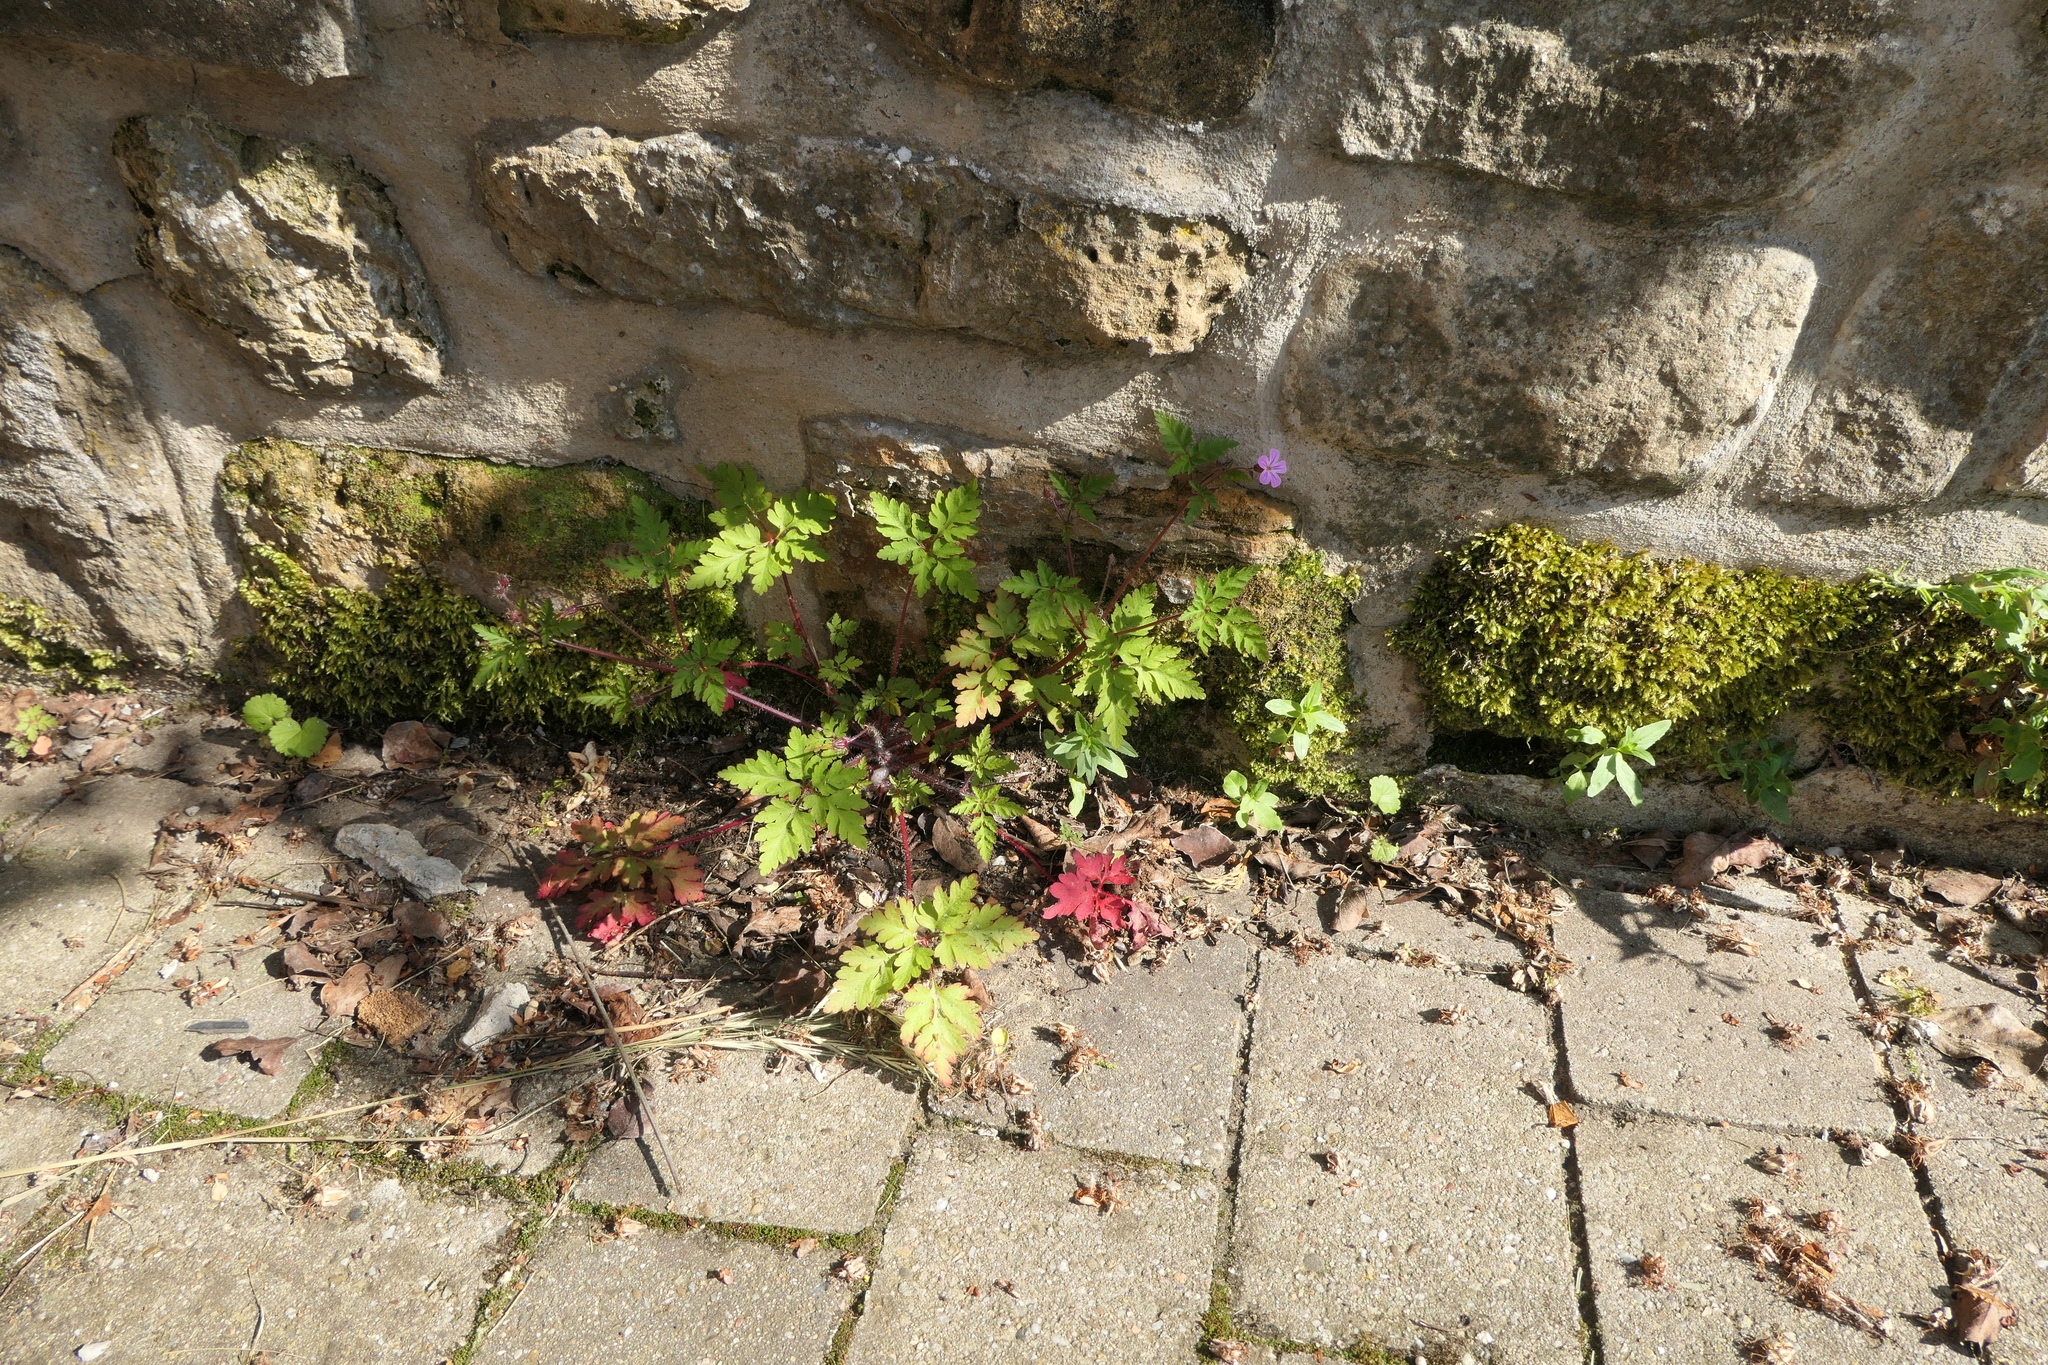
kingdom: Plantae
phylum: Tracheophyta
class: Magnoliopsida
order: Geraniales
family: Geraniaceae
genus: Geranium
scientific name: Geranium robertianum
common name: Herb-robert
